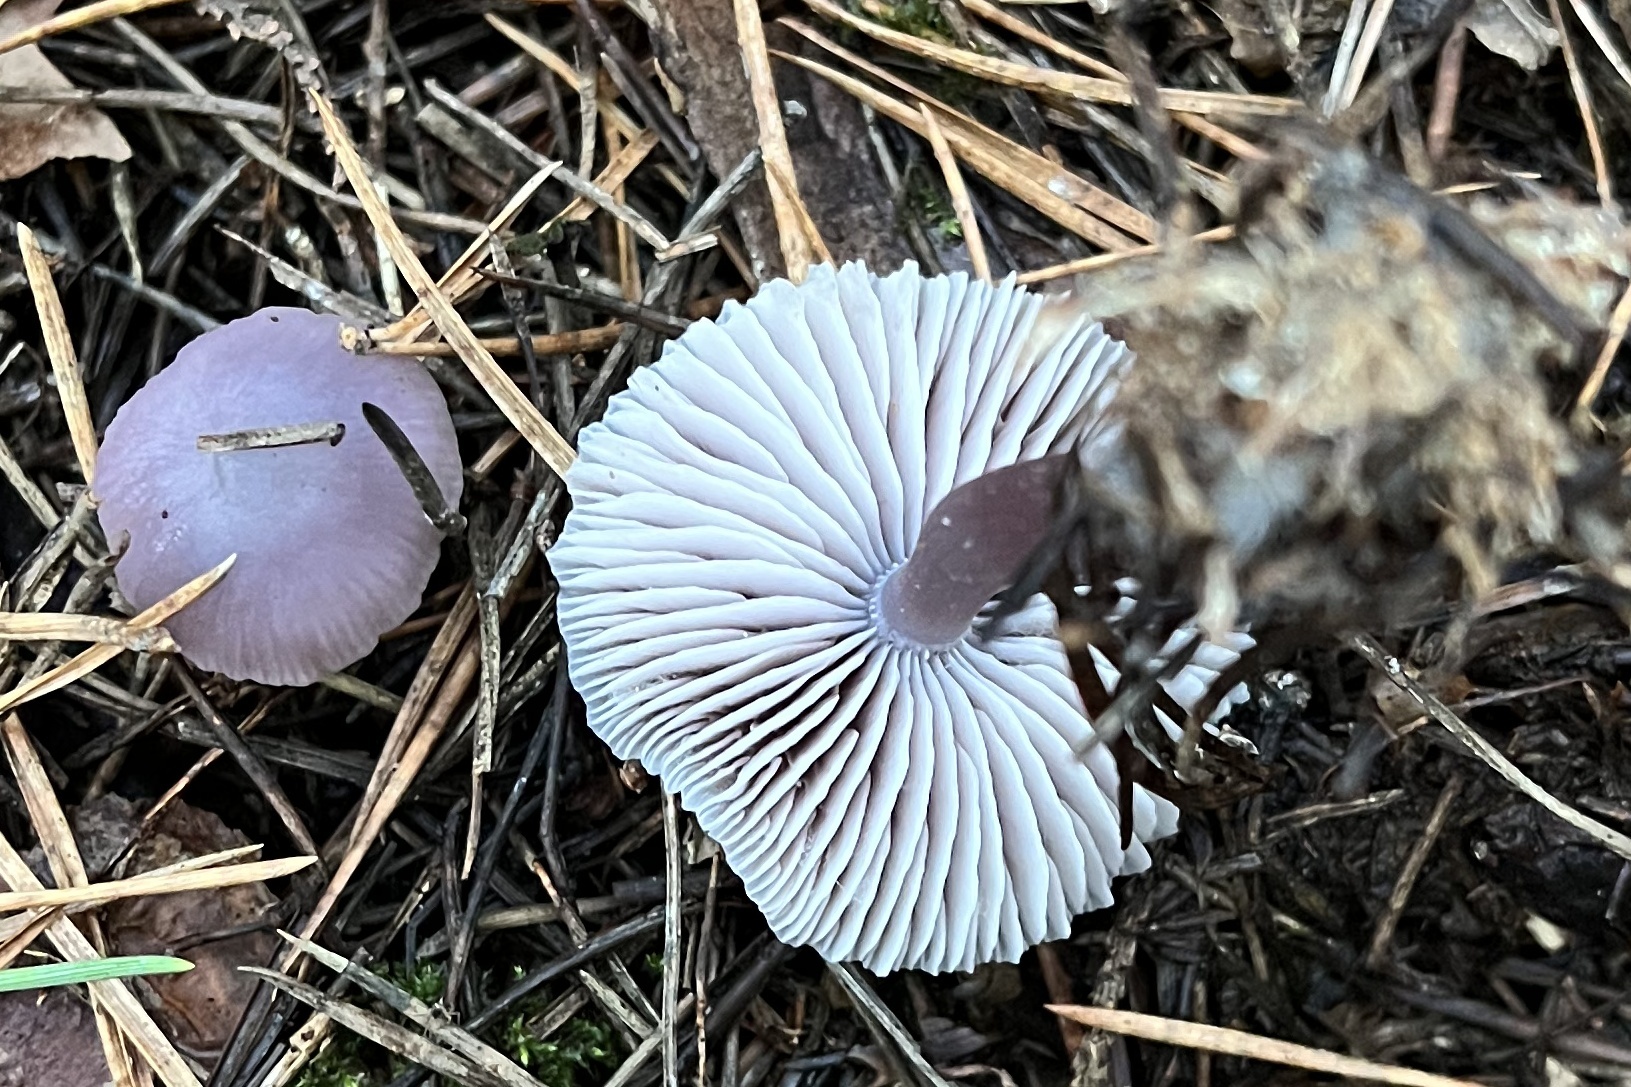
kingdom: Fungi
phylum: Basidiomycota
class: Agaricomycetes
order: Agaricales
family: Mycenaceae
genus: Mycena
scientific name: Mycena pura
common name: Lilac bonnet
